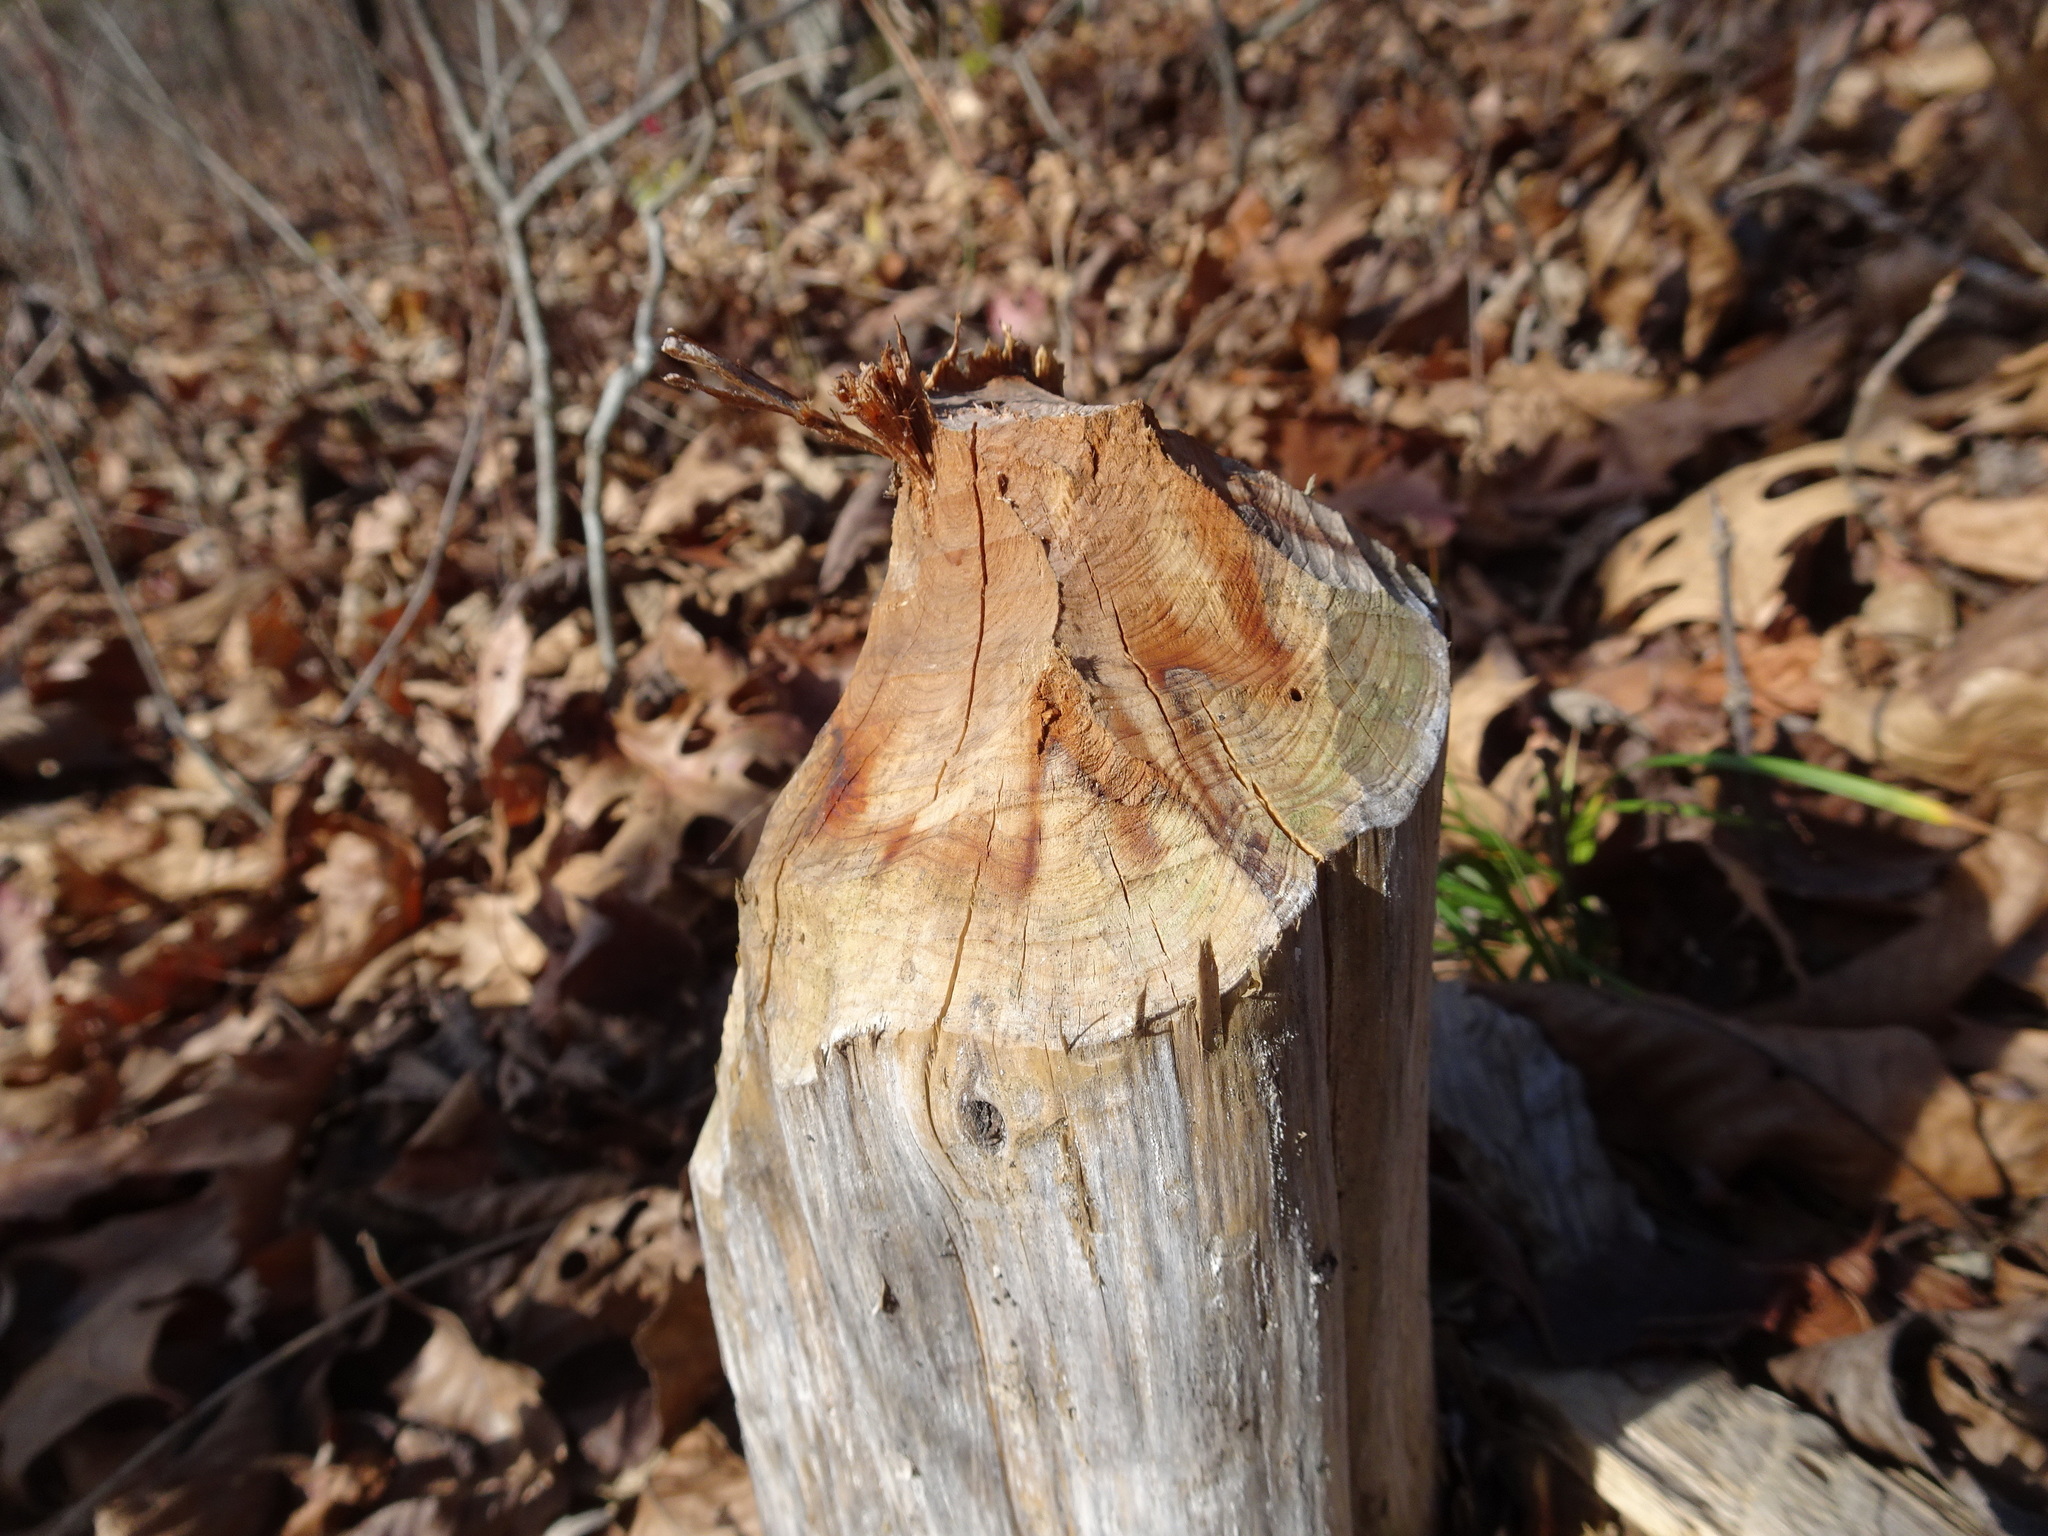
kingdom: Animalia
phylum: Chordata
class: Mammalia
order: Rodentia
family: Castoridae
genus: Castor
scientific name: Castor canadensis
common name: American beaver
